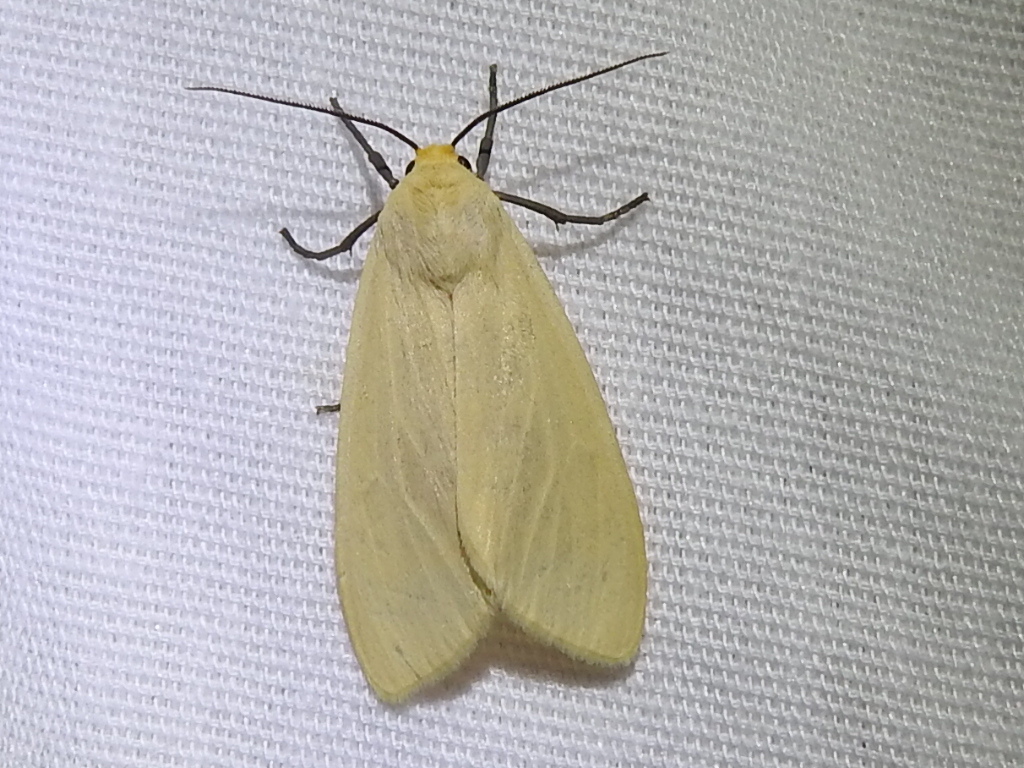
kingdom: Animalia
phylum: Arthropoda
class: Insecta
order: Lepidoptera
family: Erebidae
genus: Pareuchaetes
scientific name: Pareuchaetes insulata
